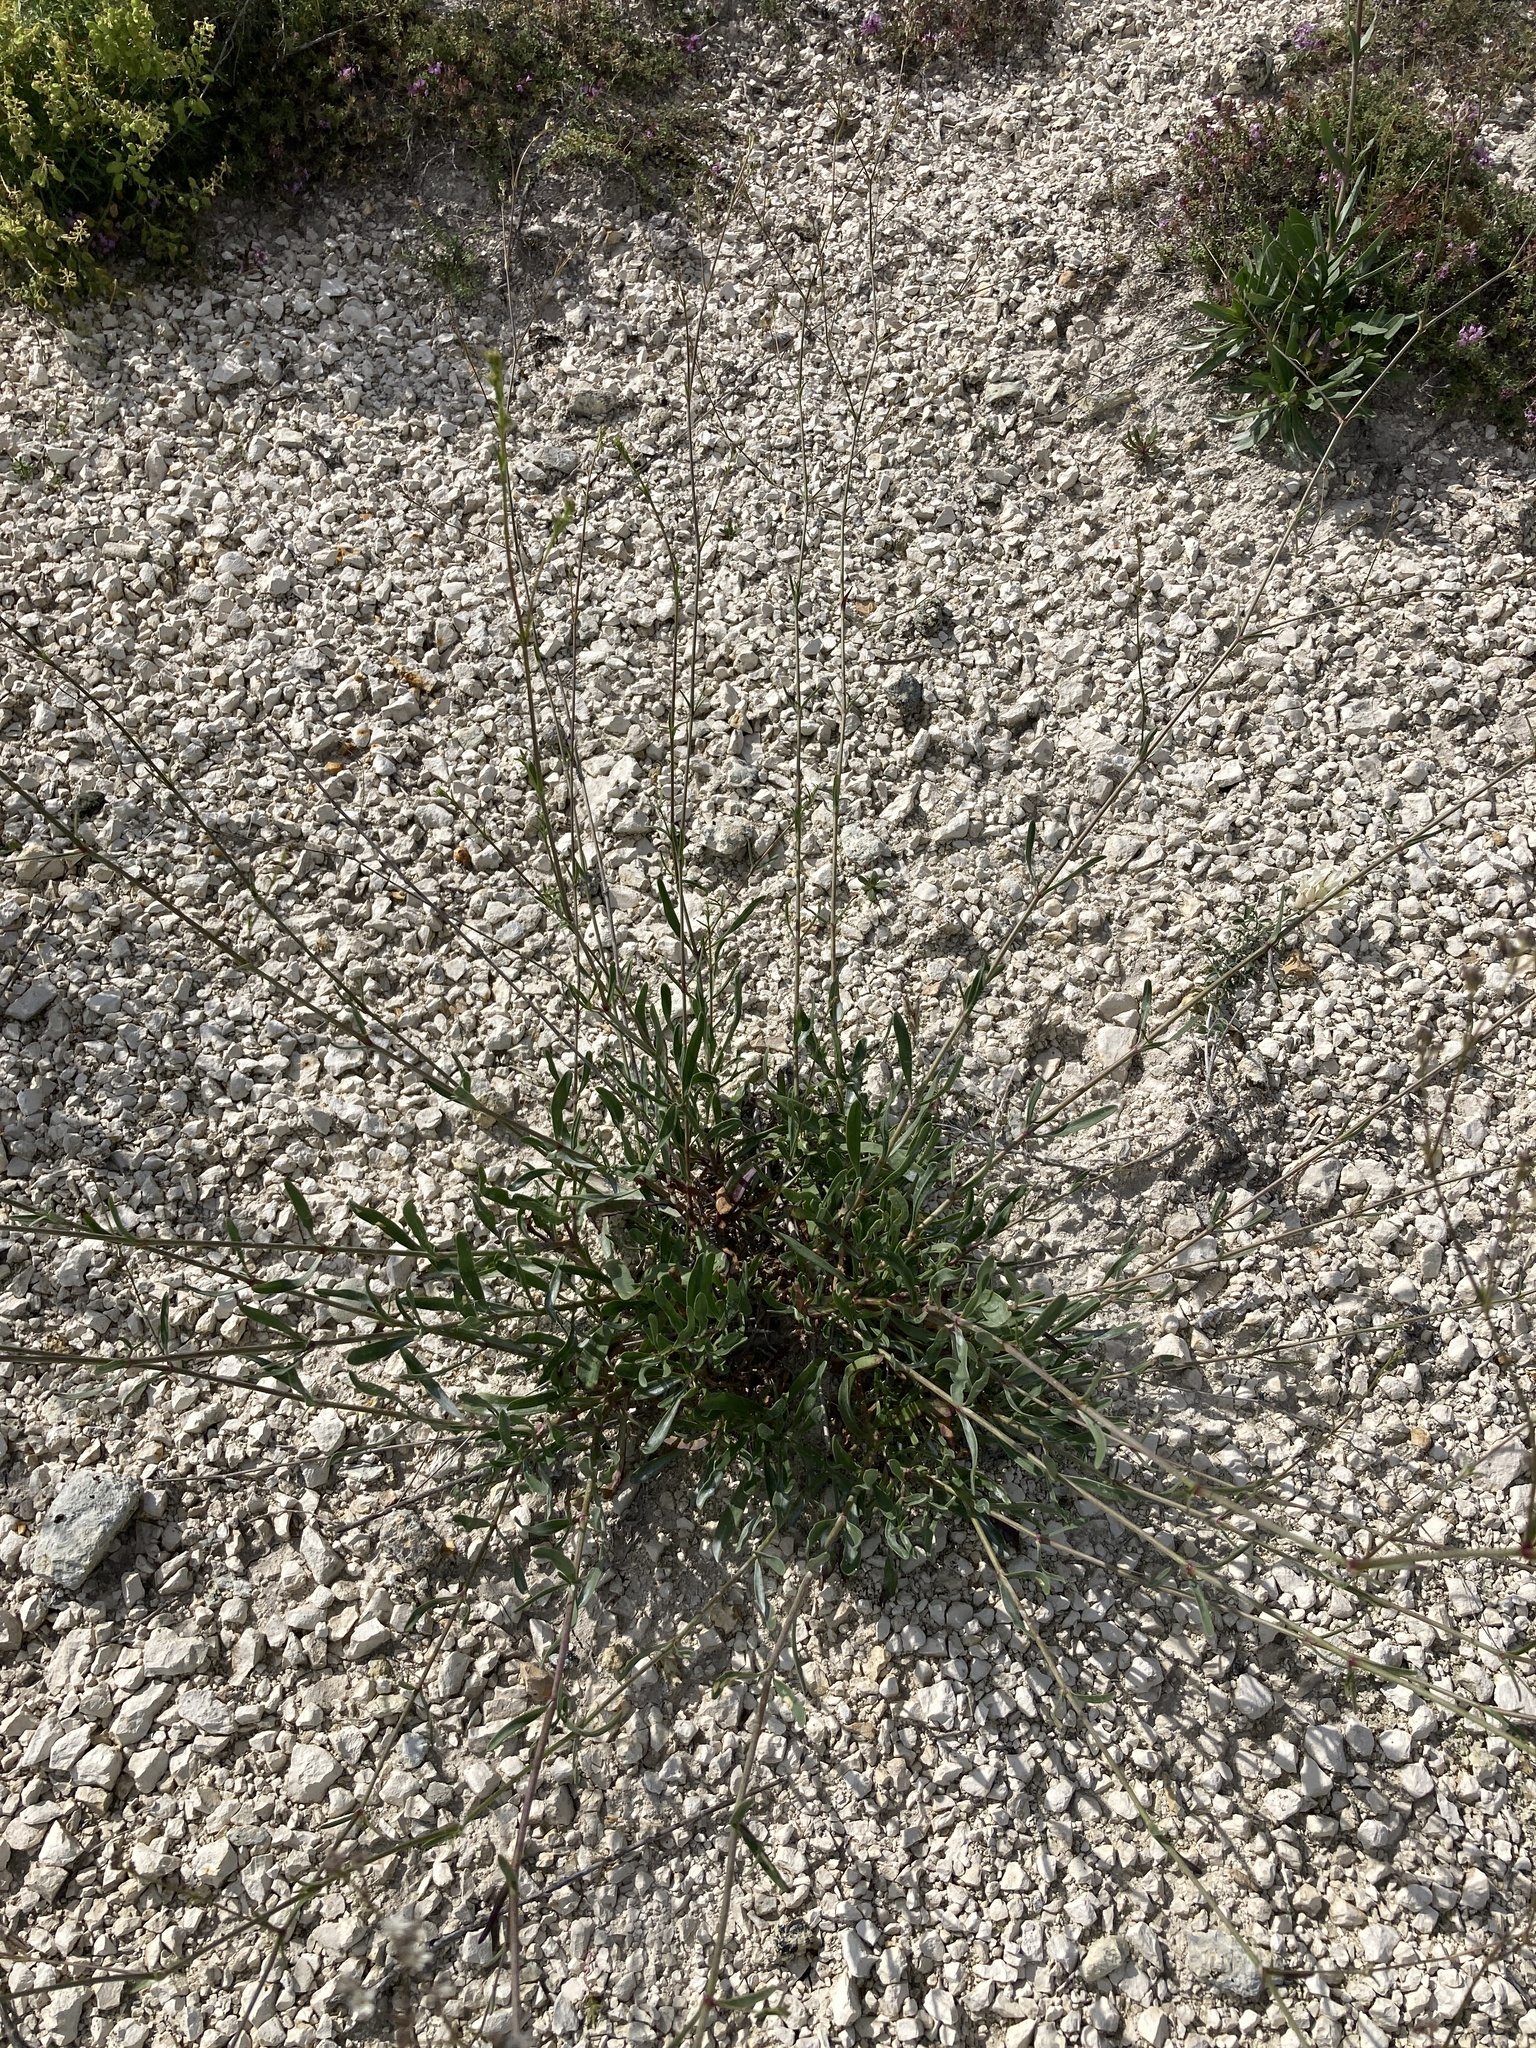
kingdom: Plantae
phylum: Tracheophyta
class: Magnoliopsida
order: Caryophyllales
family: Caryophyllaceae
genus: Gypsophila
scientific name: Gypsophila altissima
